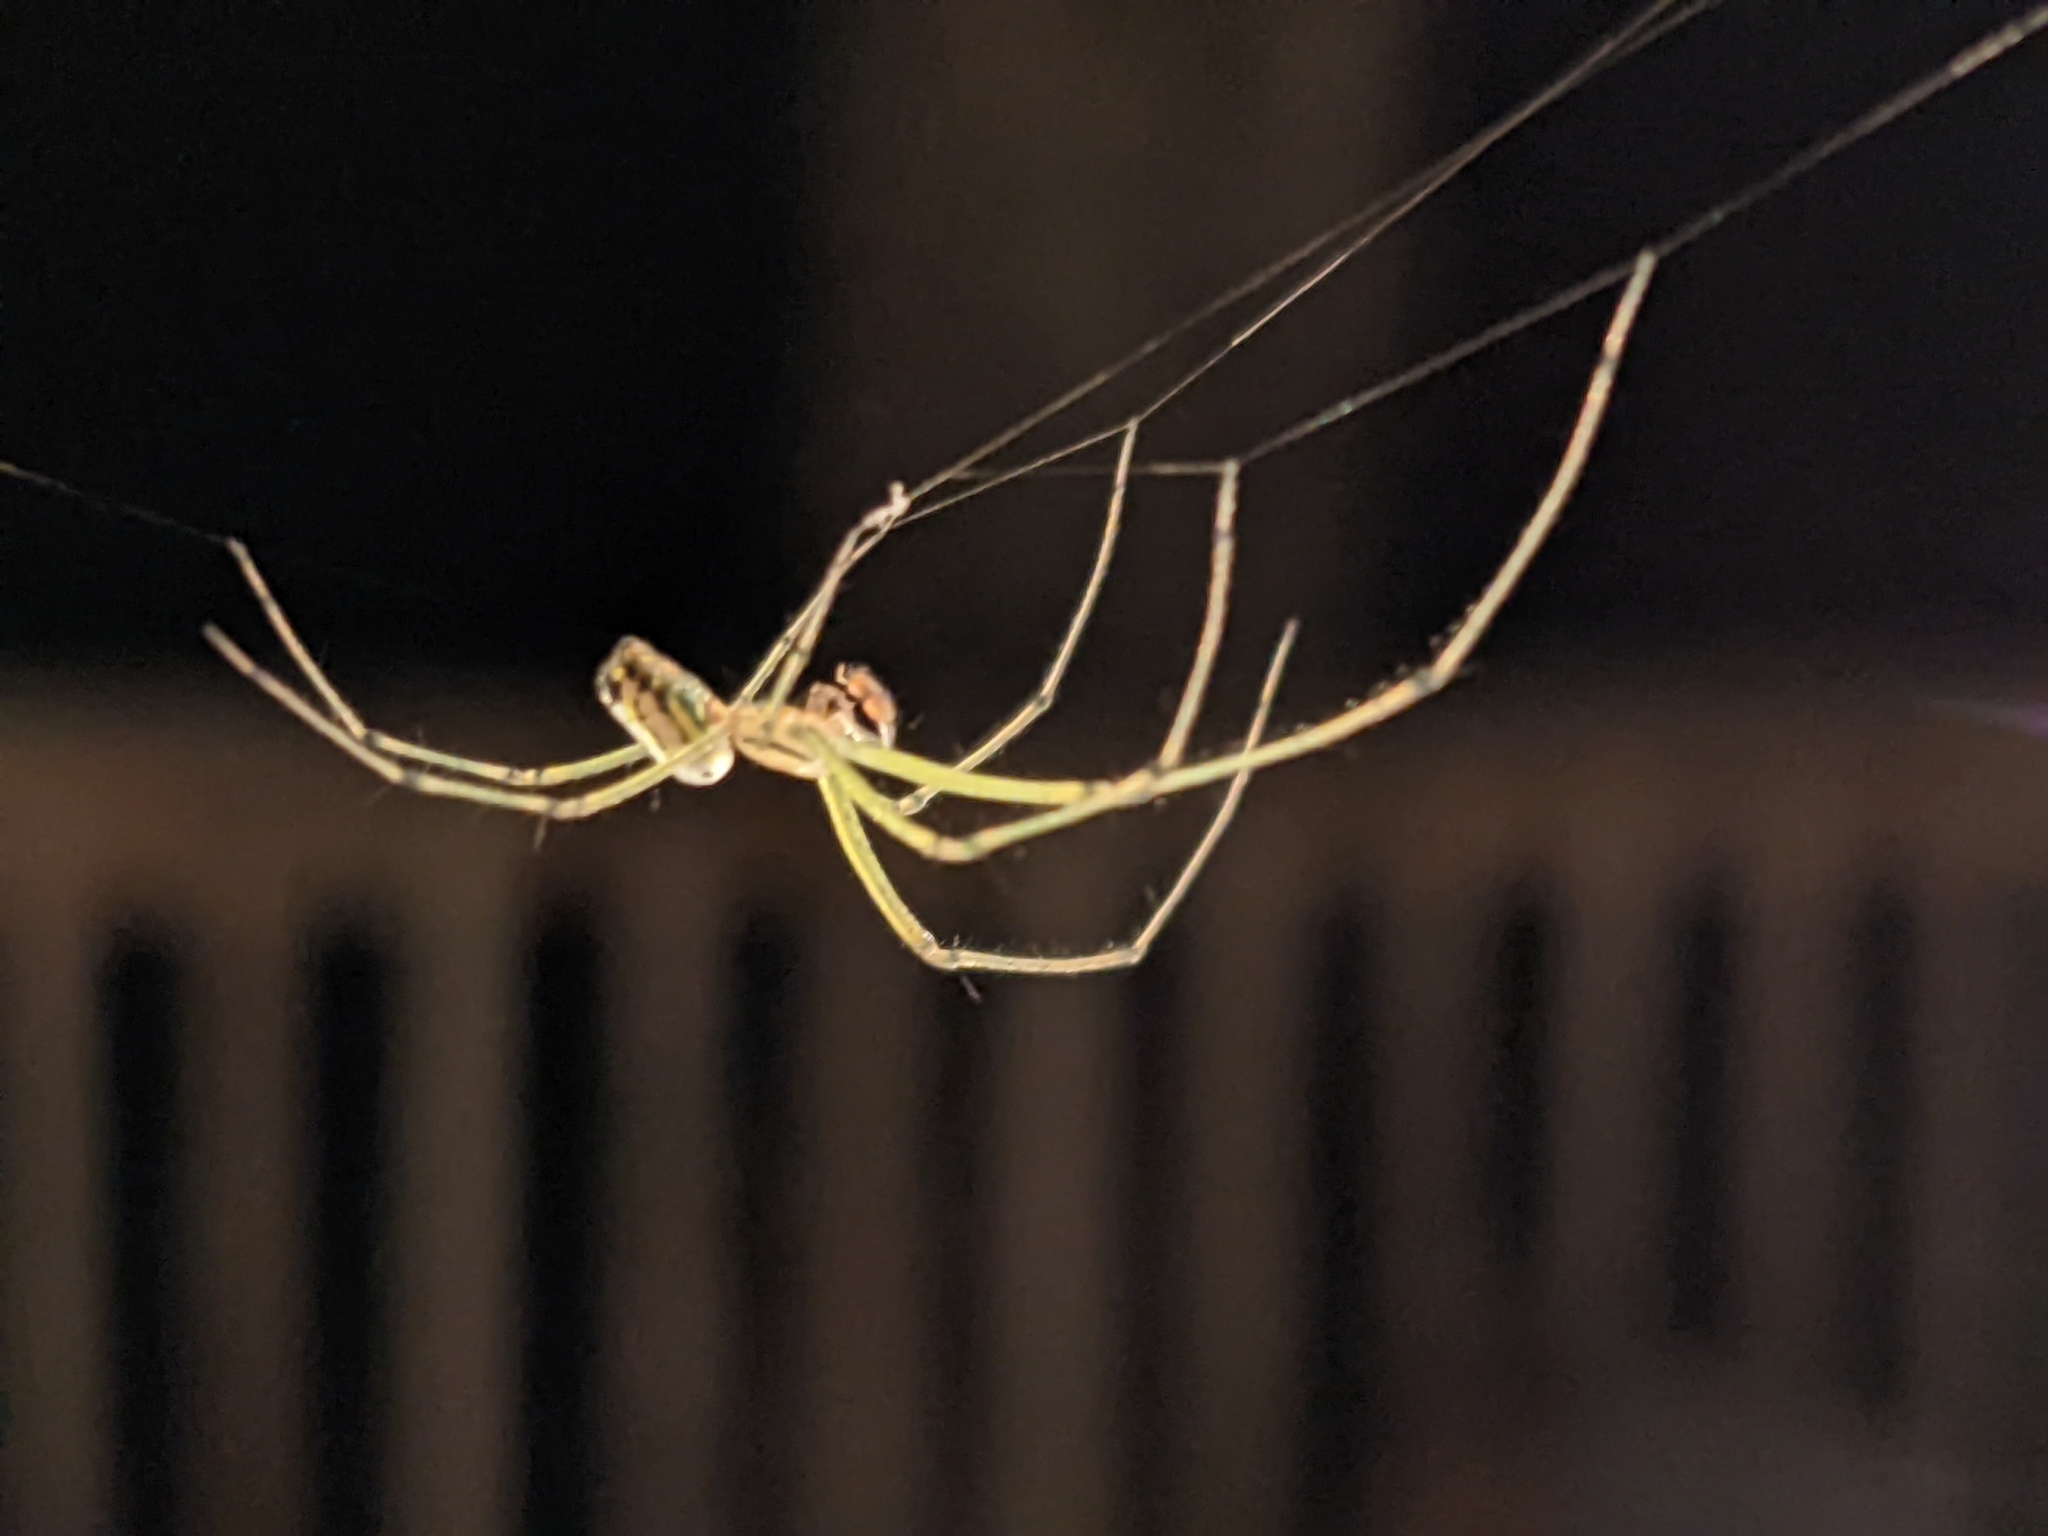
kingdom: Animalia
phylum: Arthropoda
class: Arachnida
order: Araneae
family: Tetragnathidae
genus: Leucauge
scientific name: Leucauge venusta
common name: Longjawed orb weavers
